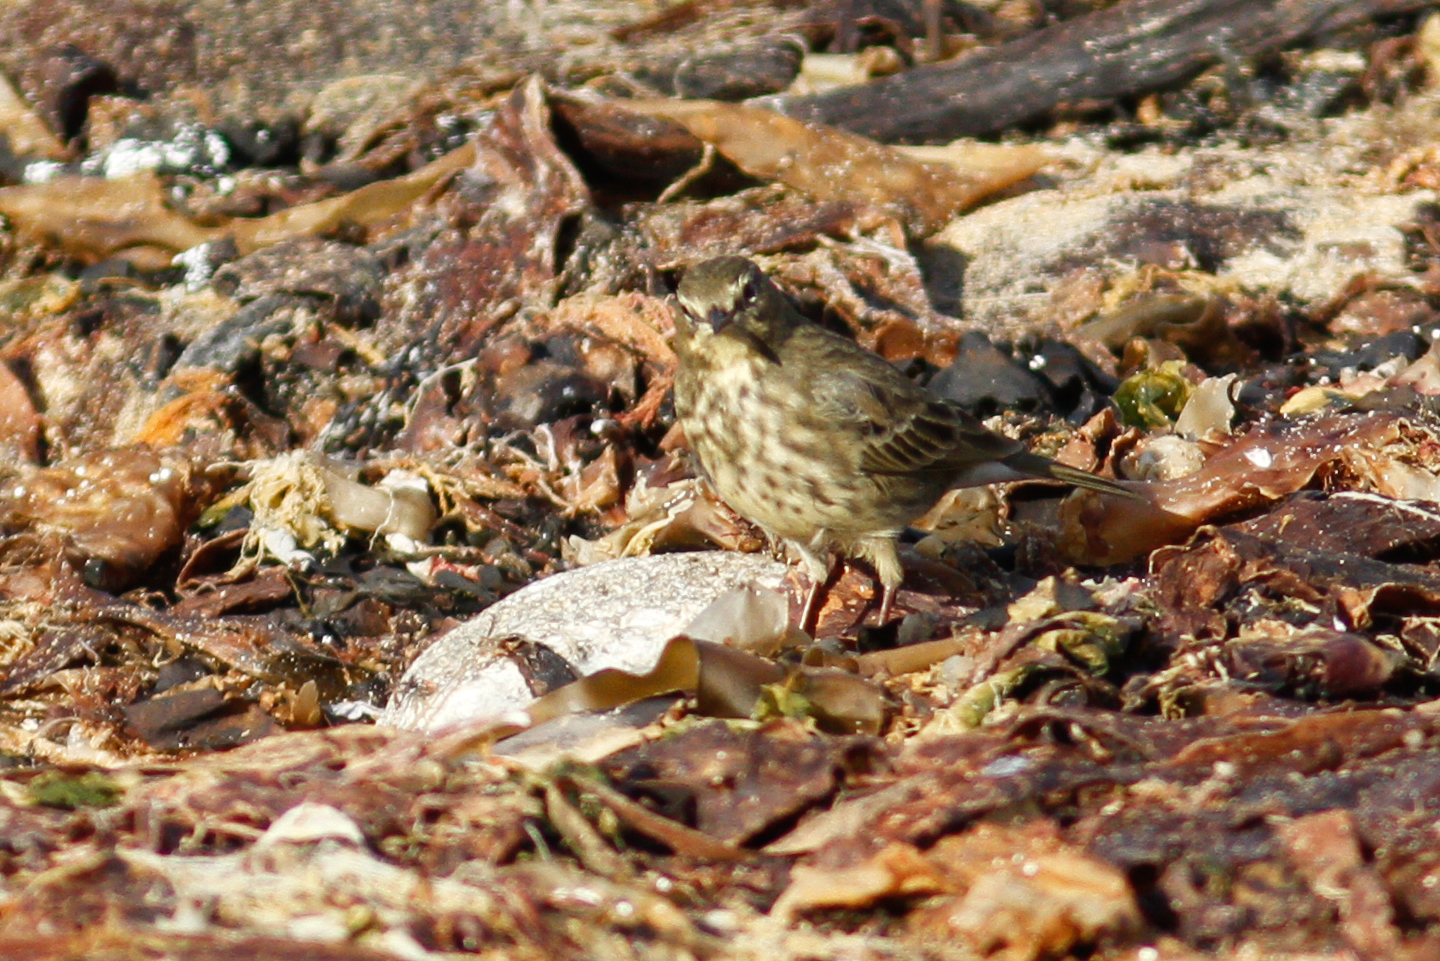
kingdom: Animalia
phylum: Chordata
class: Aves
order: Passeriformes
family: Motacillidae
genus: Anthus
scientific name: Anthus petrosus
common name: Eurasian rock pipit
